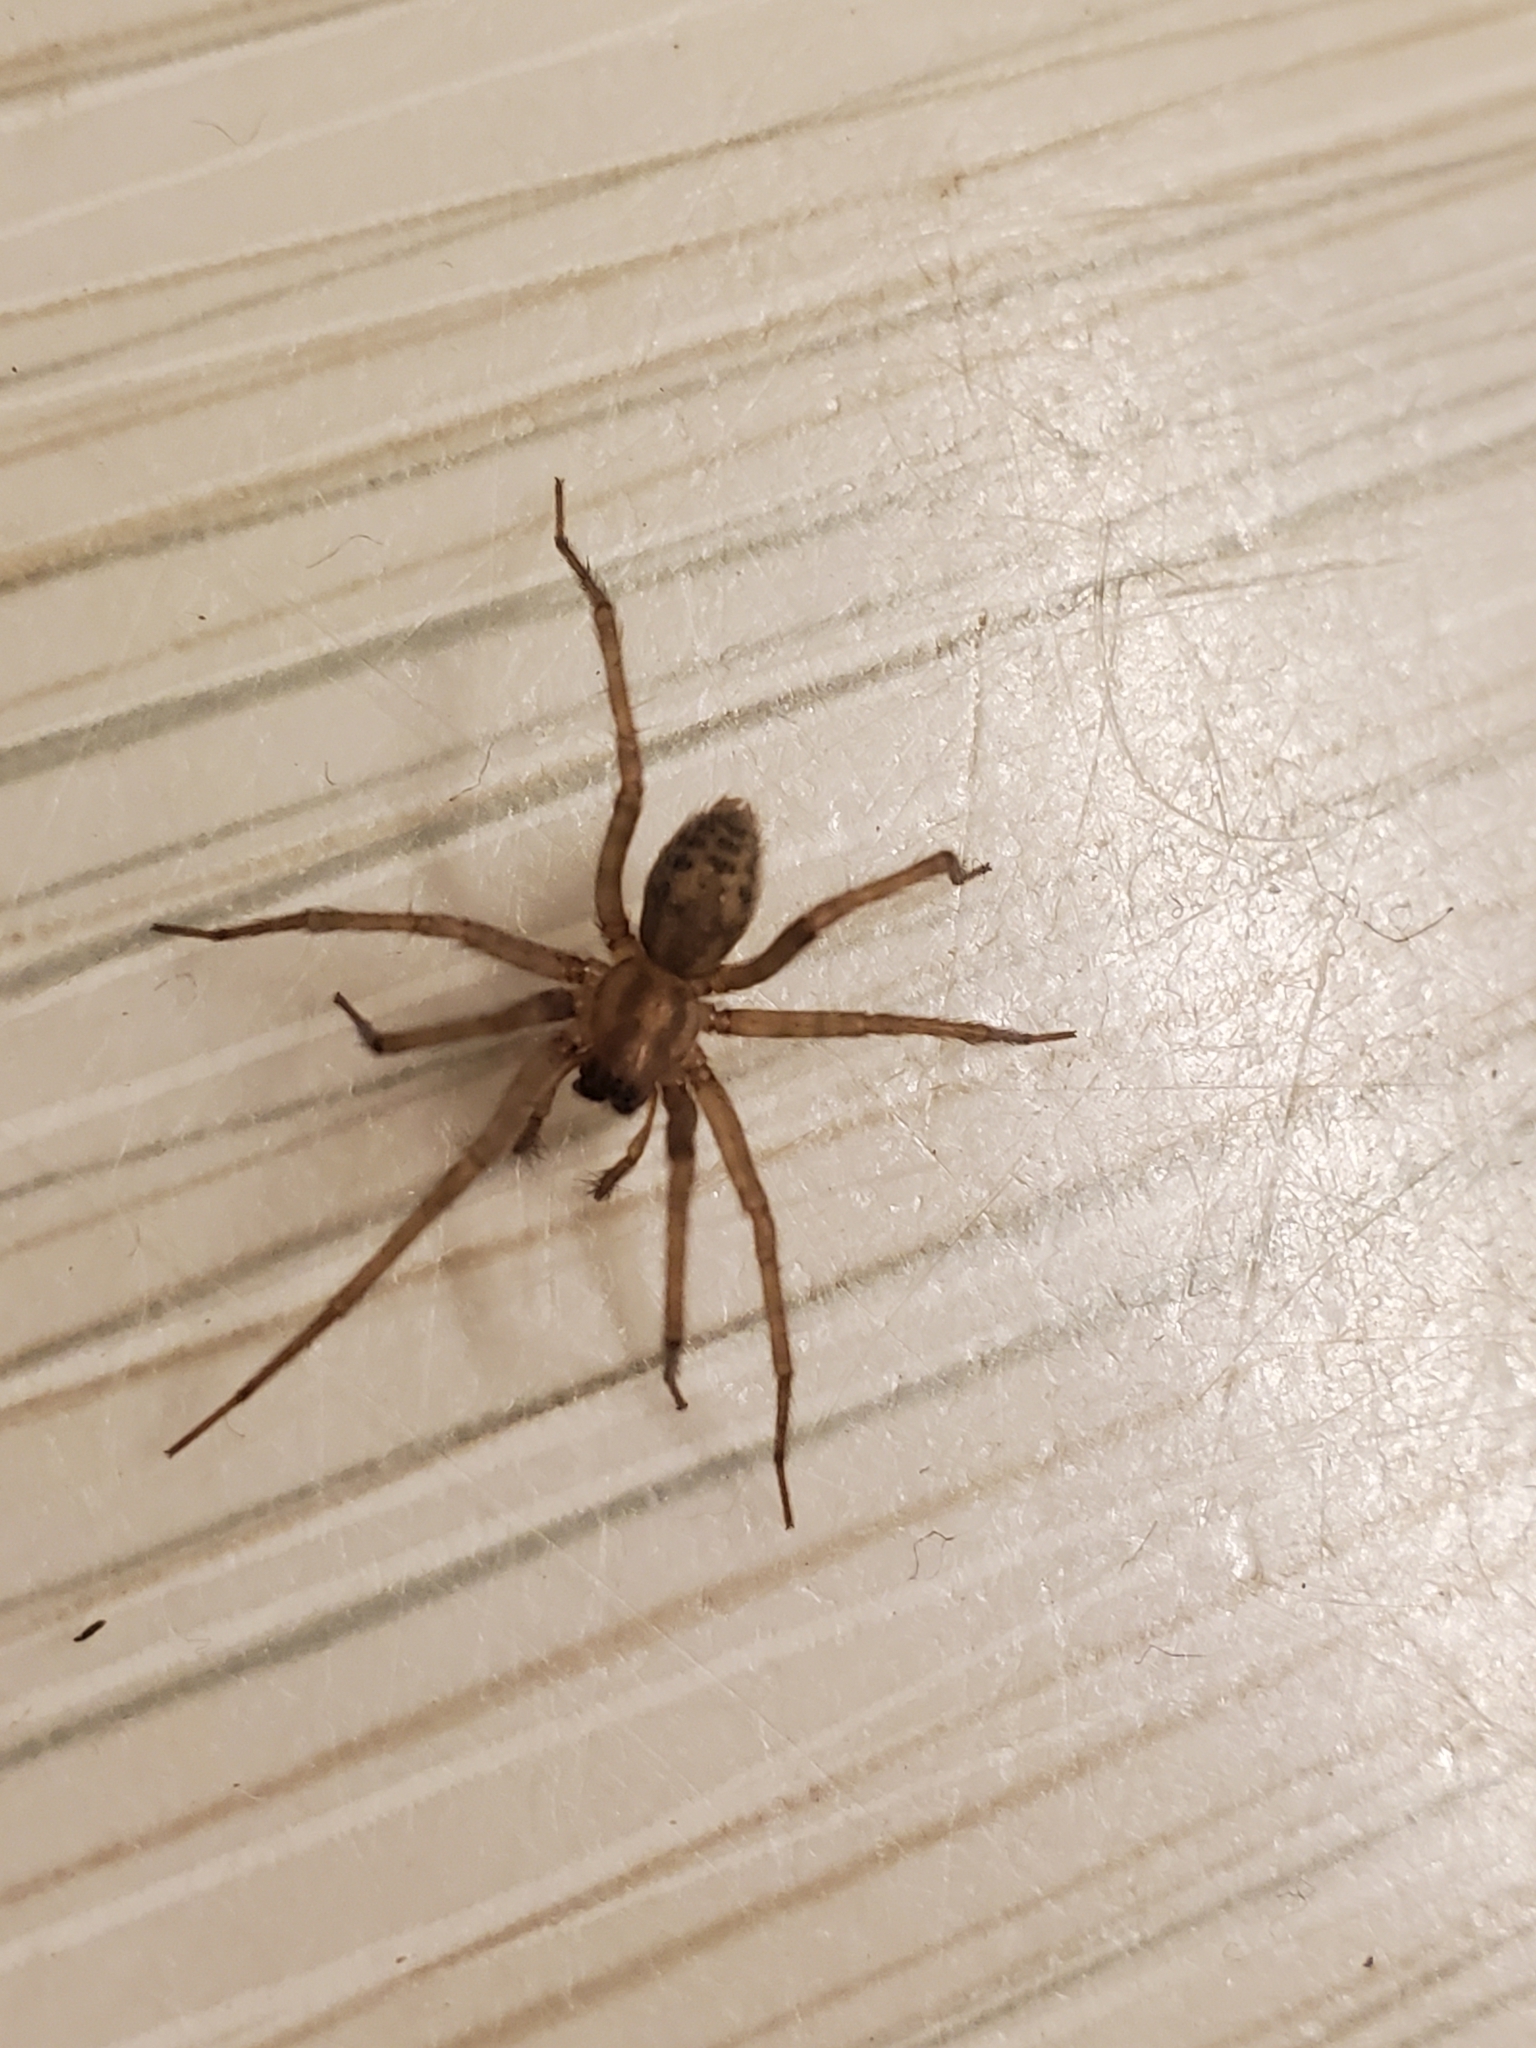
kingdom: Animalia
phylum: Arthropoda
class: Arachnida
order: Araneae
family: Agelenidae
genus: Tegenaria
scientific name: Tegenaria domestica
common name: Barn funnel weaver
